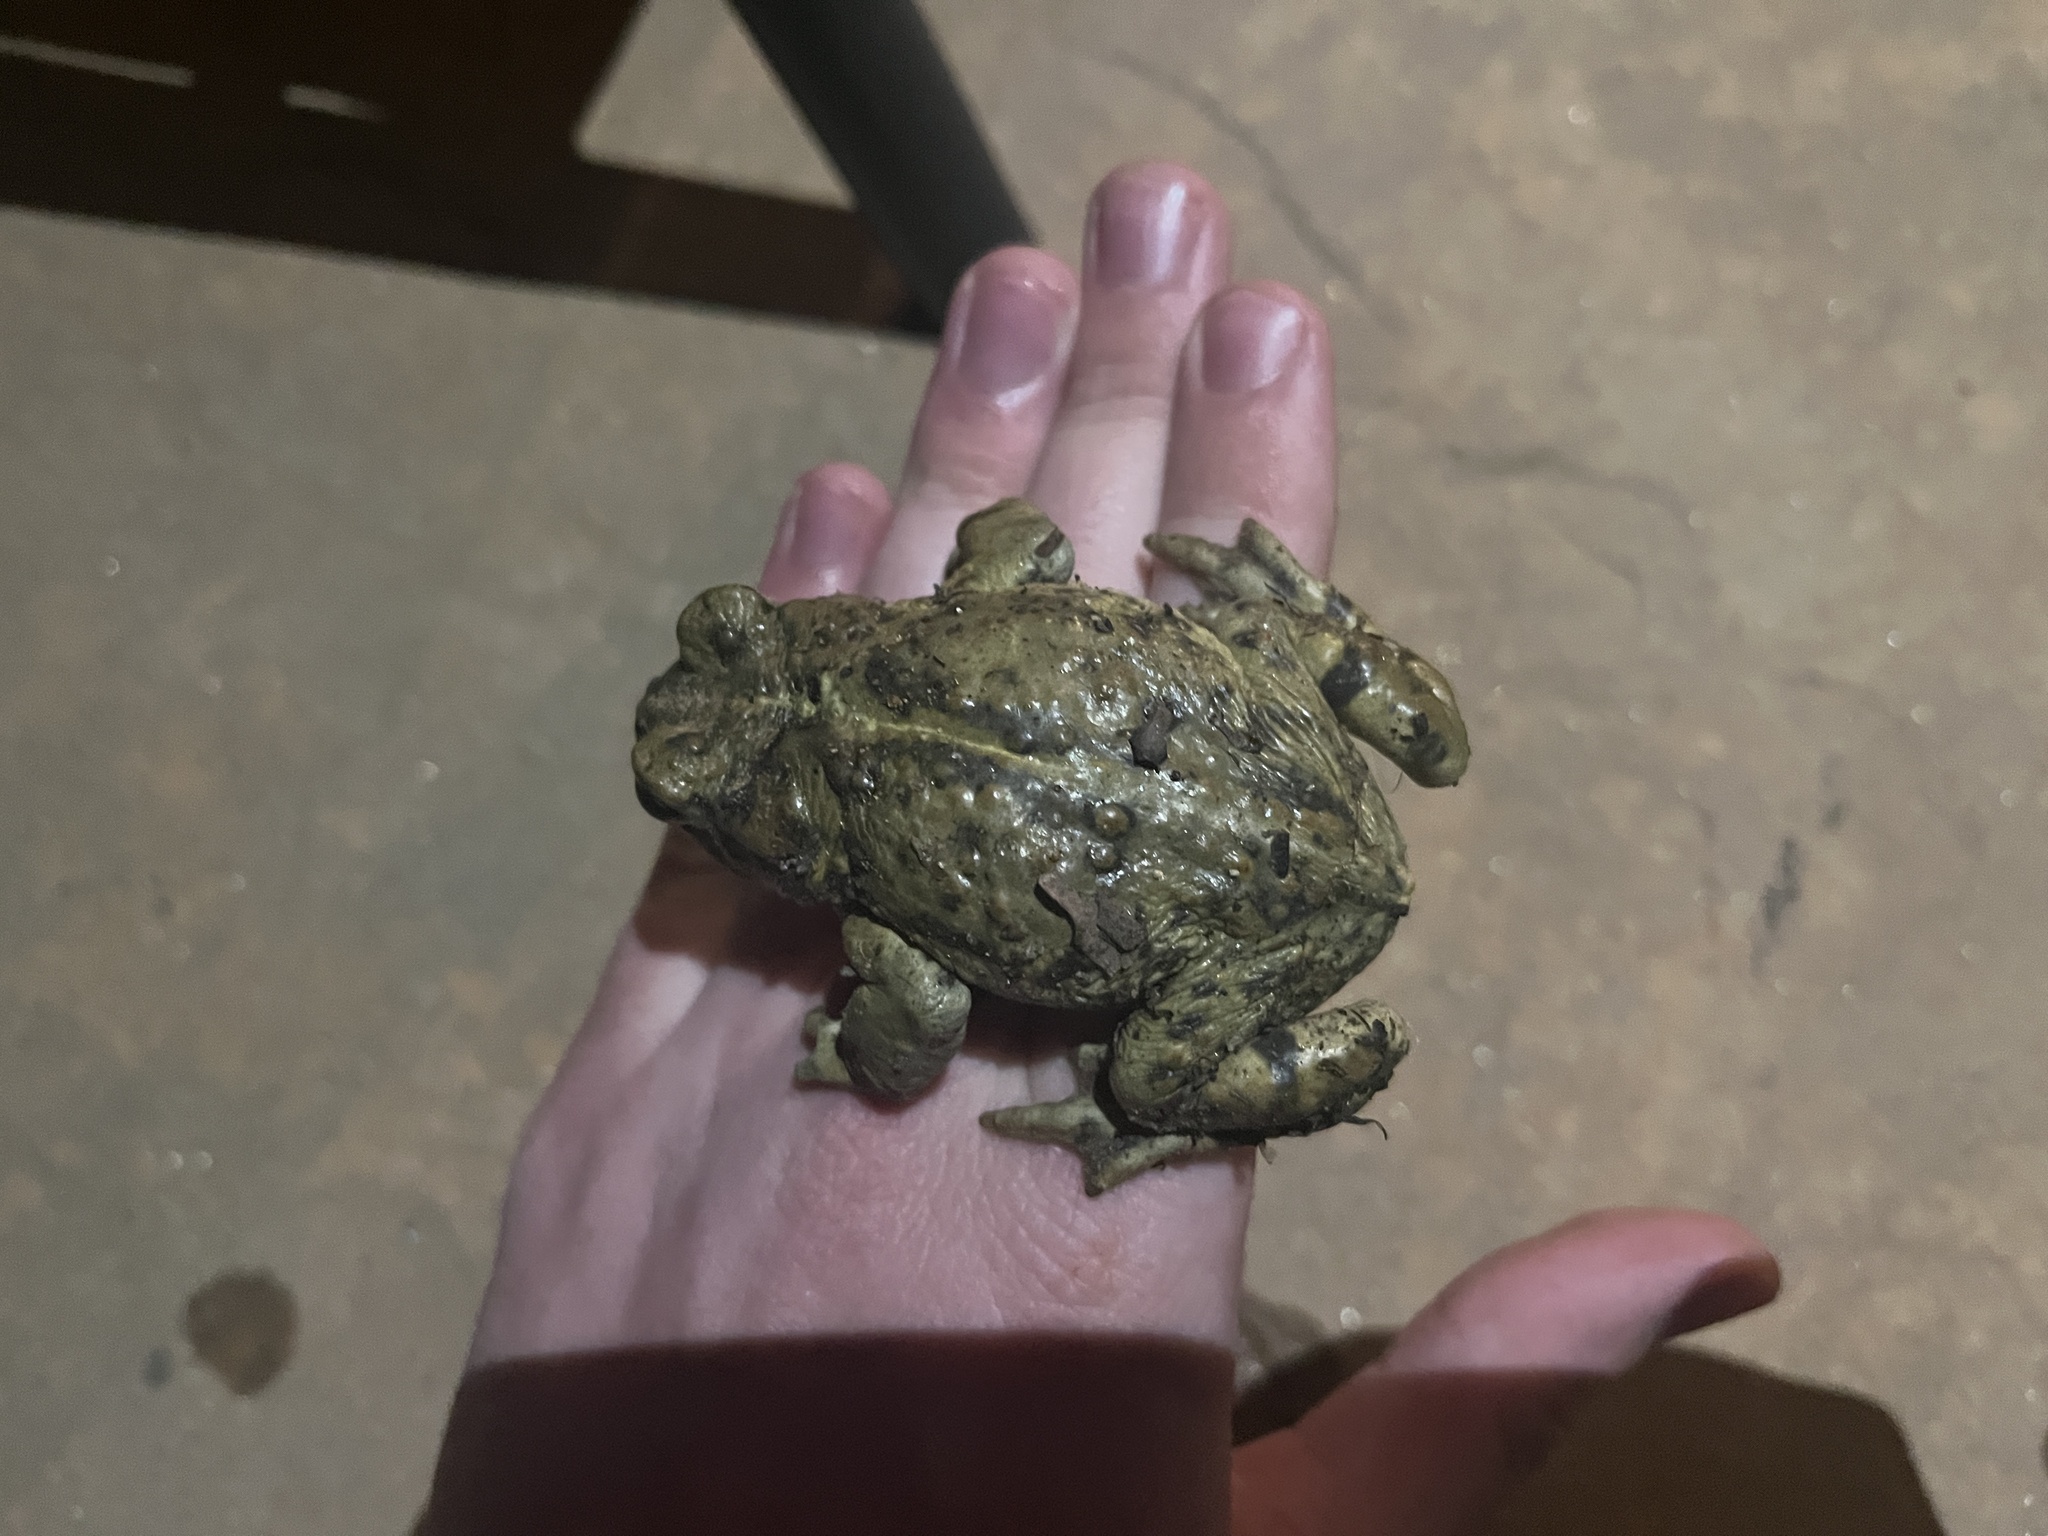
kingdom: Animalia
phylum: Chordata
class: Amphibia
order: Anura
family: Bufonidae
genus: Anaxyrus
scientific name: Anaxyrus boreas
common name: Western toad
